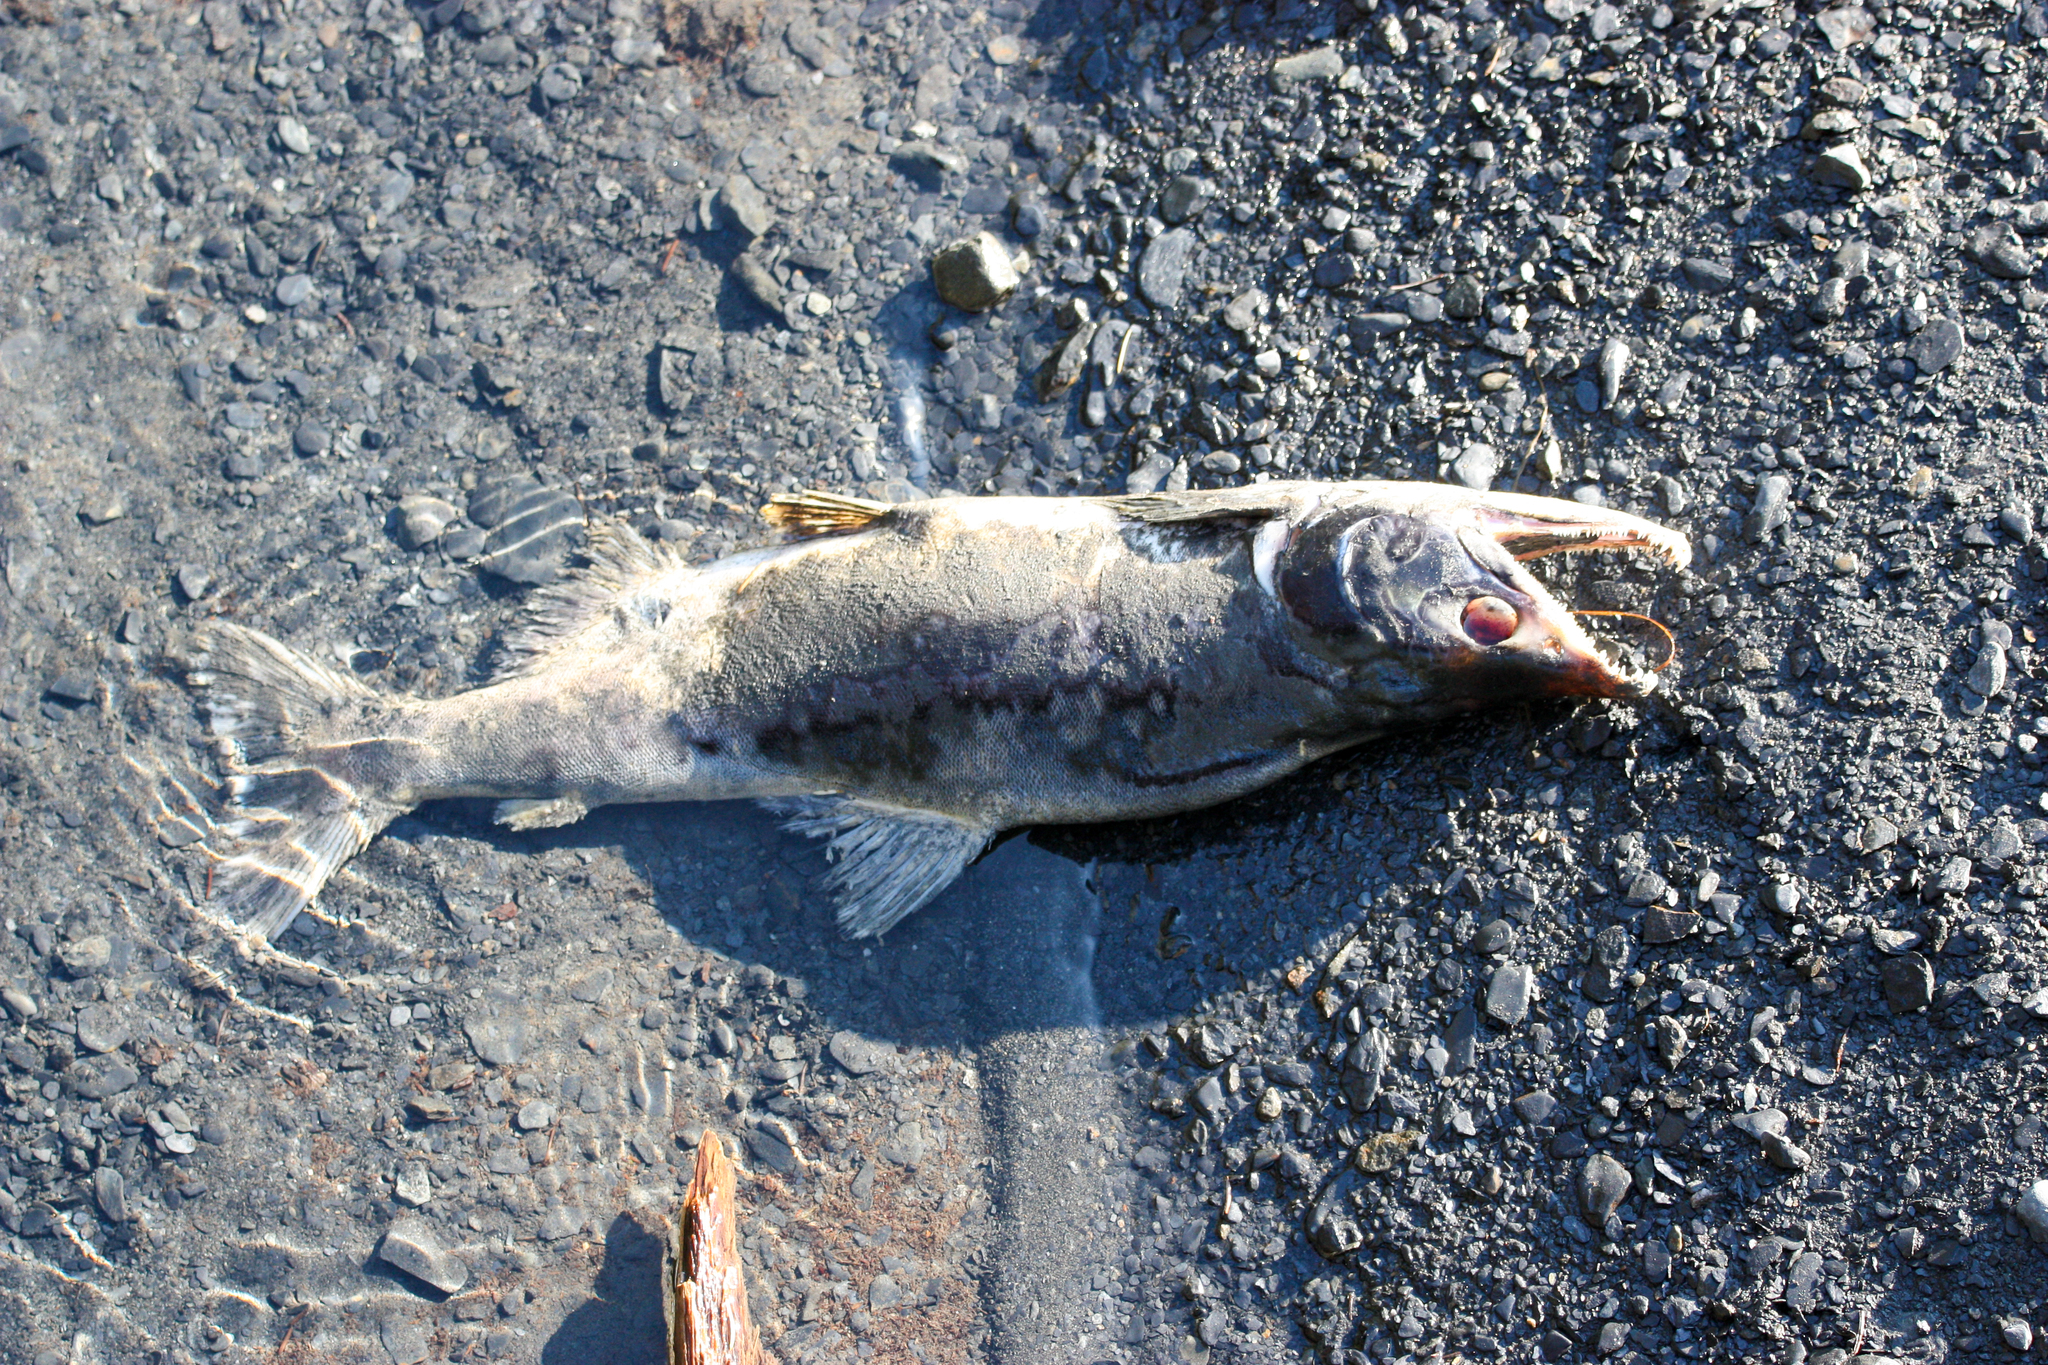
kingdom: Animalia
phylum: Chordata
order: Salmoniformes
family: Salmonidae
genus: Oncorhynchus
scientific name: Oncorhynchus gorbuscha
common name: Humpback salmon
